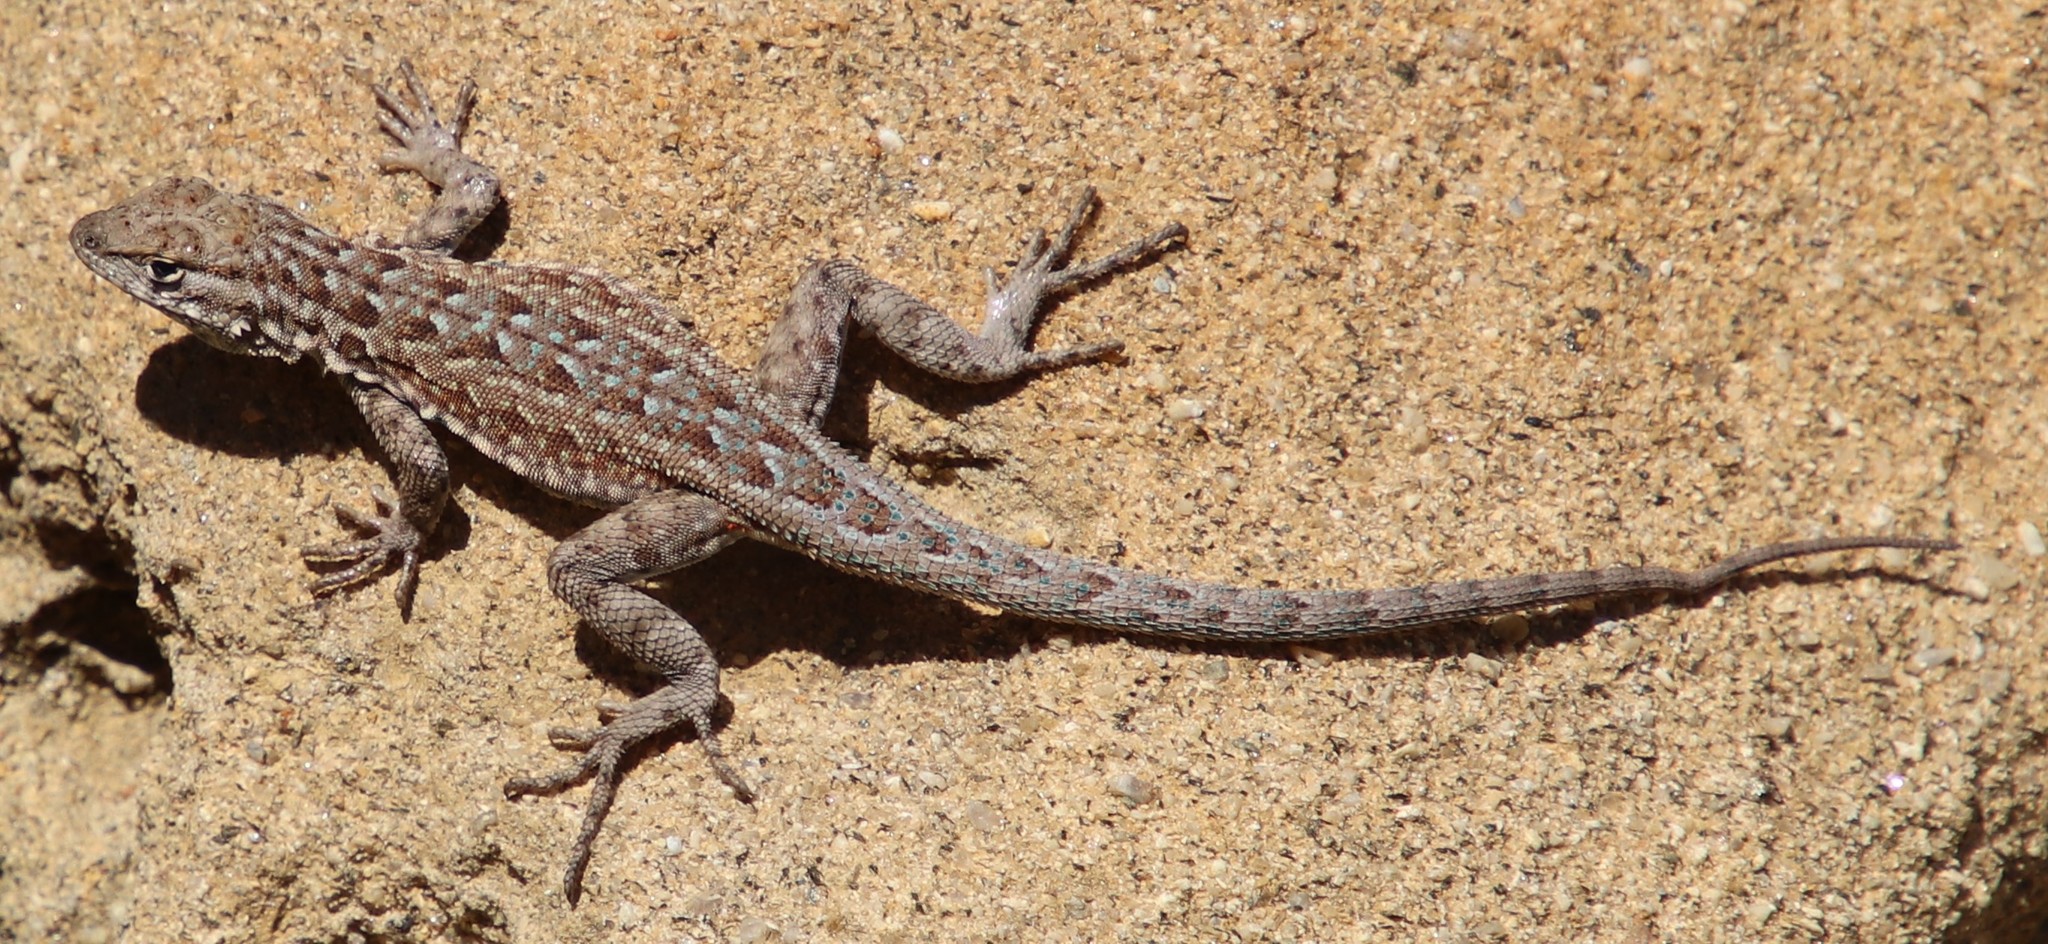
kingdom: Animalia
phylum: Chordata
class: Squamata
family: Phrynosomatidae
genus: Uta
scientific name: Uta stansburiana
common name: Side-blotched lizard
